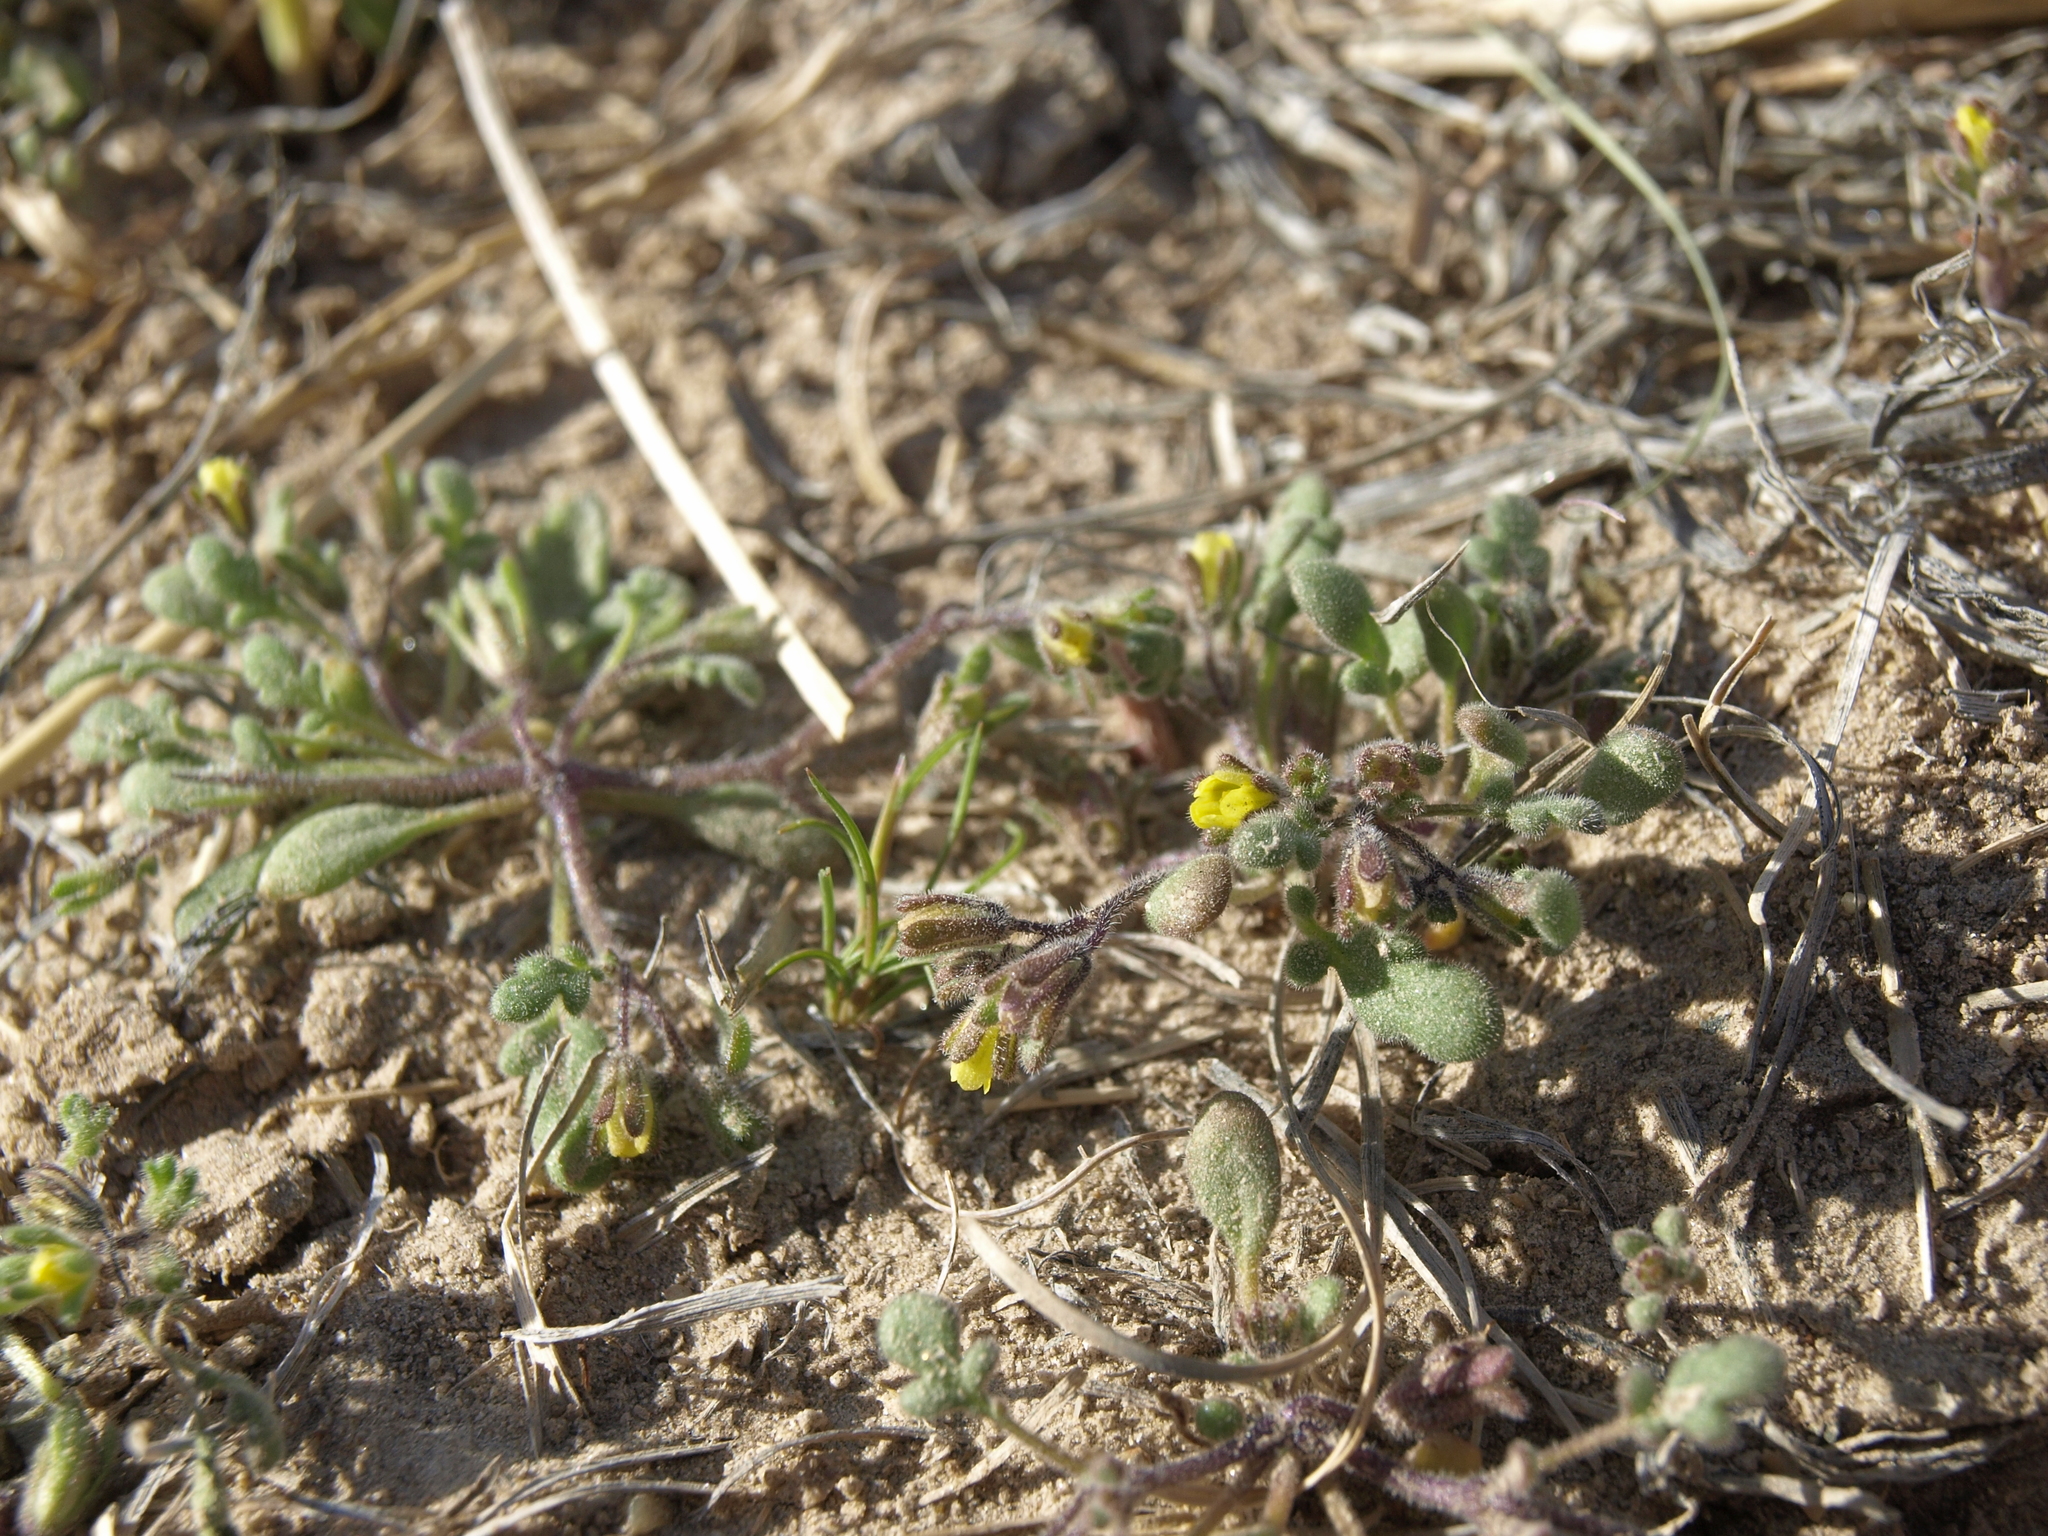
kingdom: Plantae
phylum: Tracheophyta
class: Magnoliopsida
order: Boraginales
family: Hydrophyllaceae
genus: Phacelia
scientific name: Phacelia inyoensis
